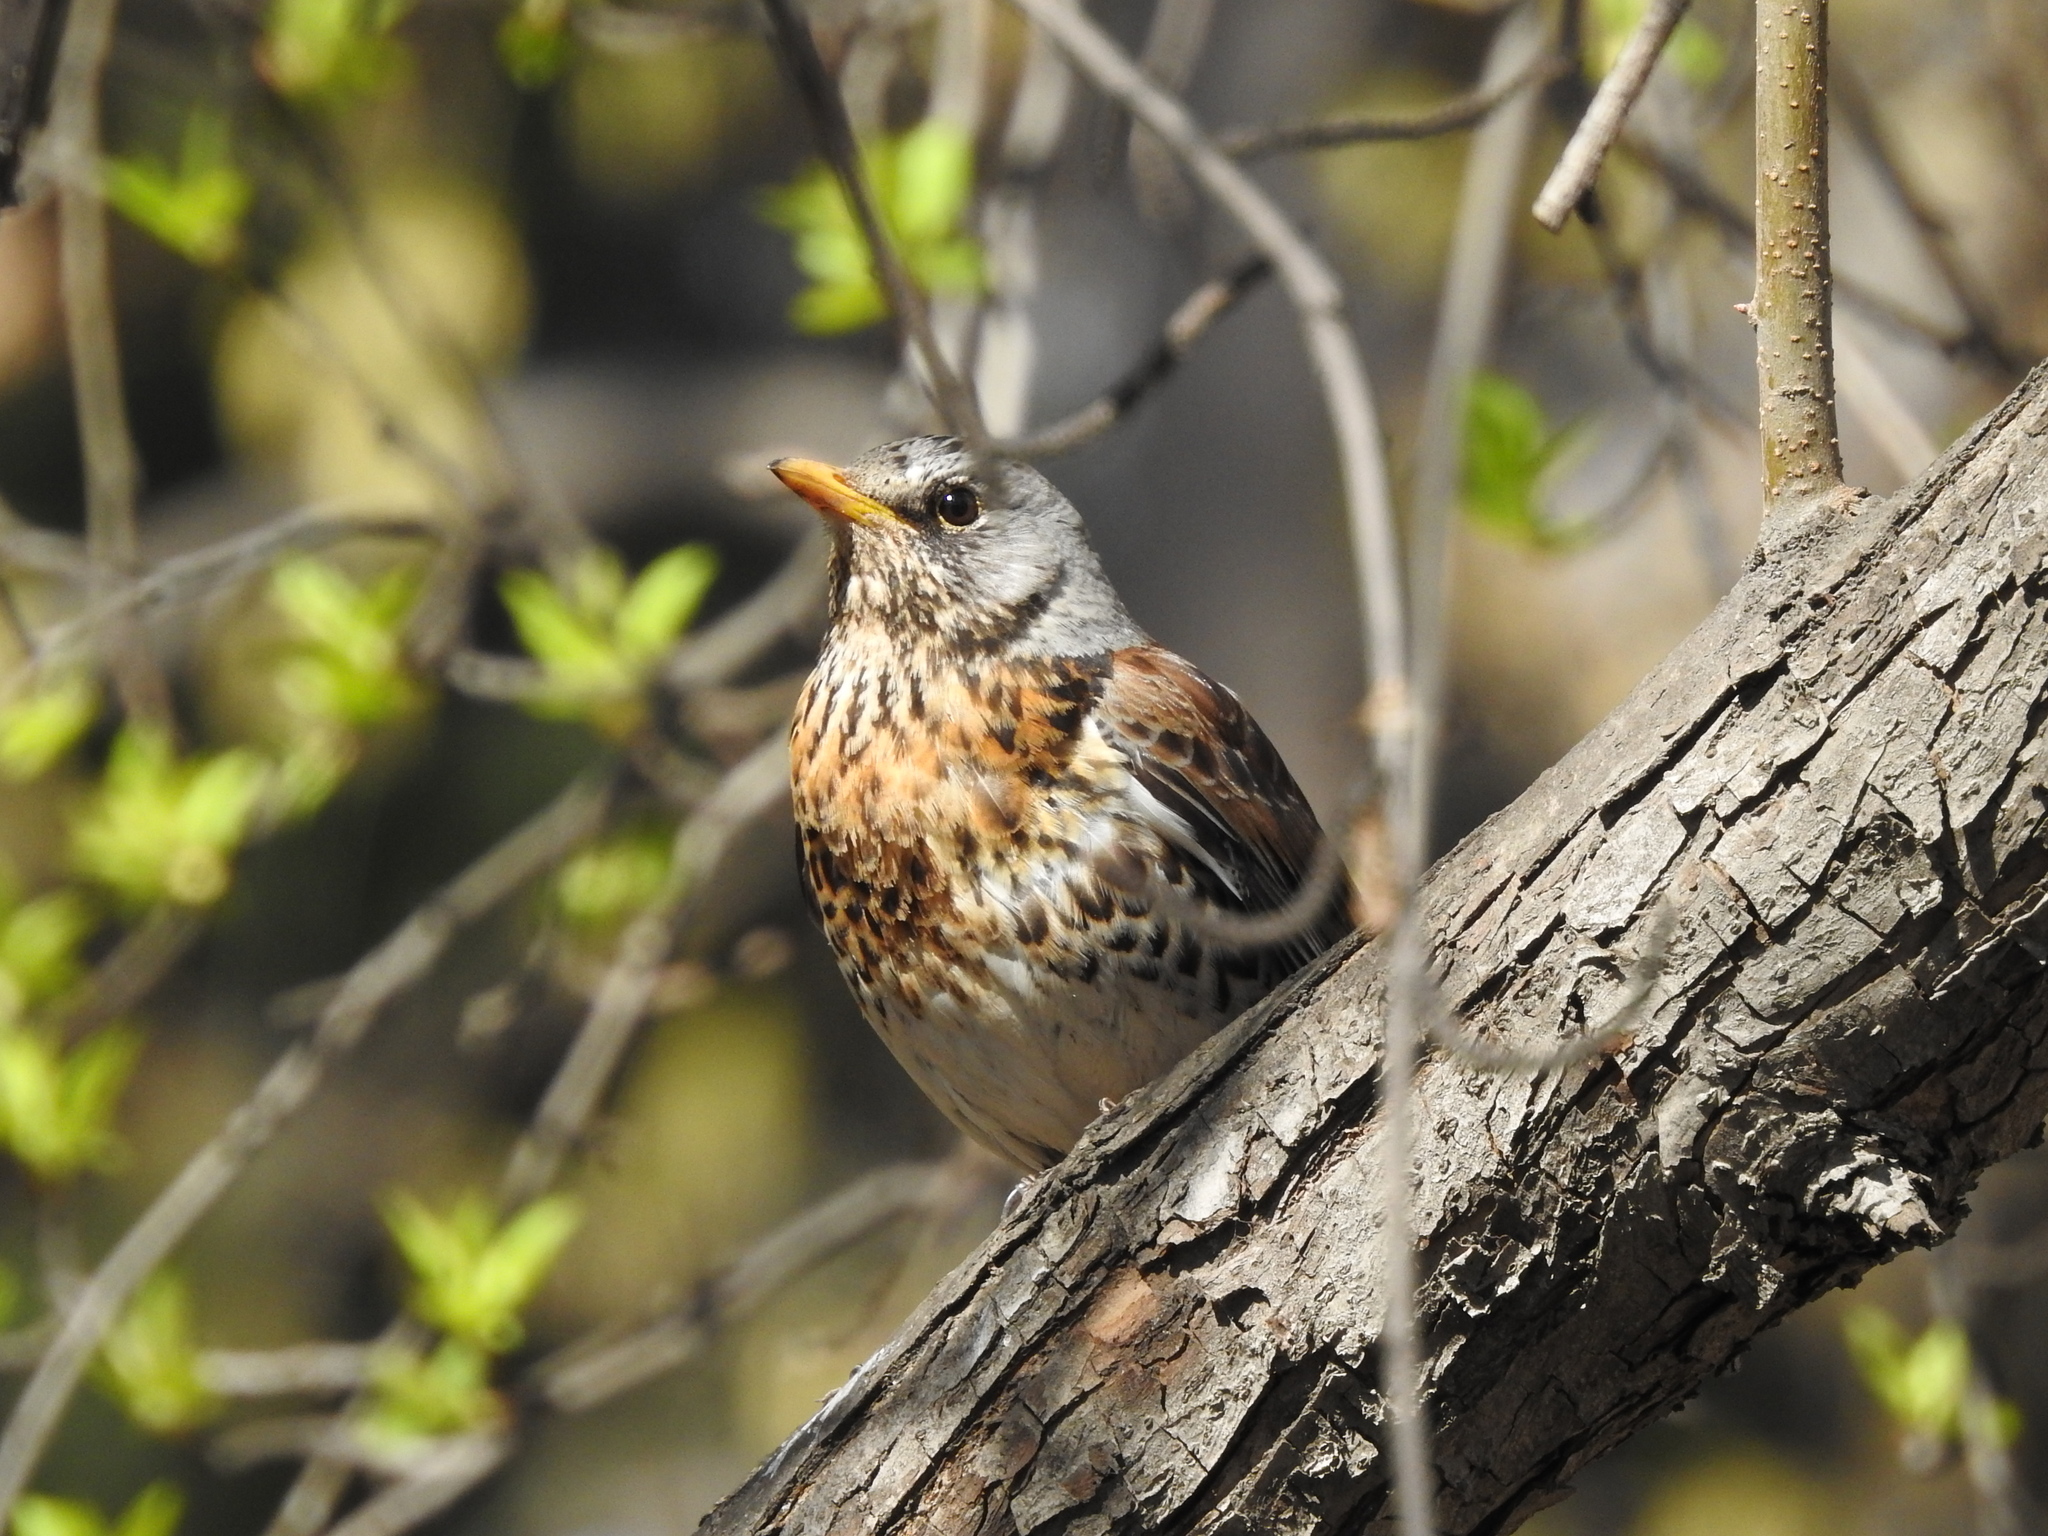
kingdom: Animalia
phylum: Chordata
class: Aves
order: Passeriformes
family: Turdidae
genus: Turdus
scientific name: Turdus pilaris
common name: Fieldfare
